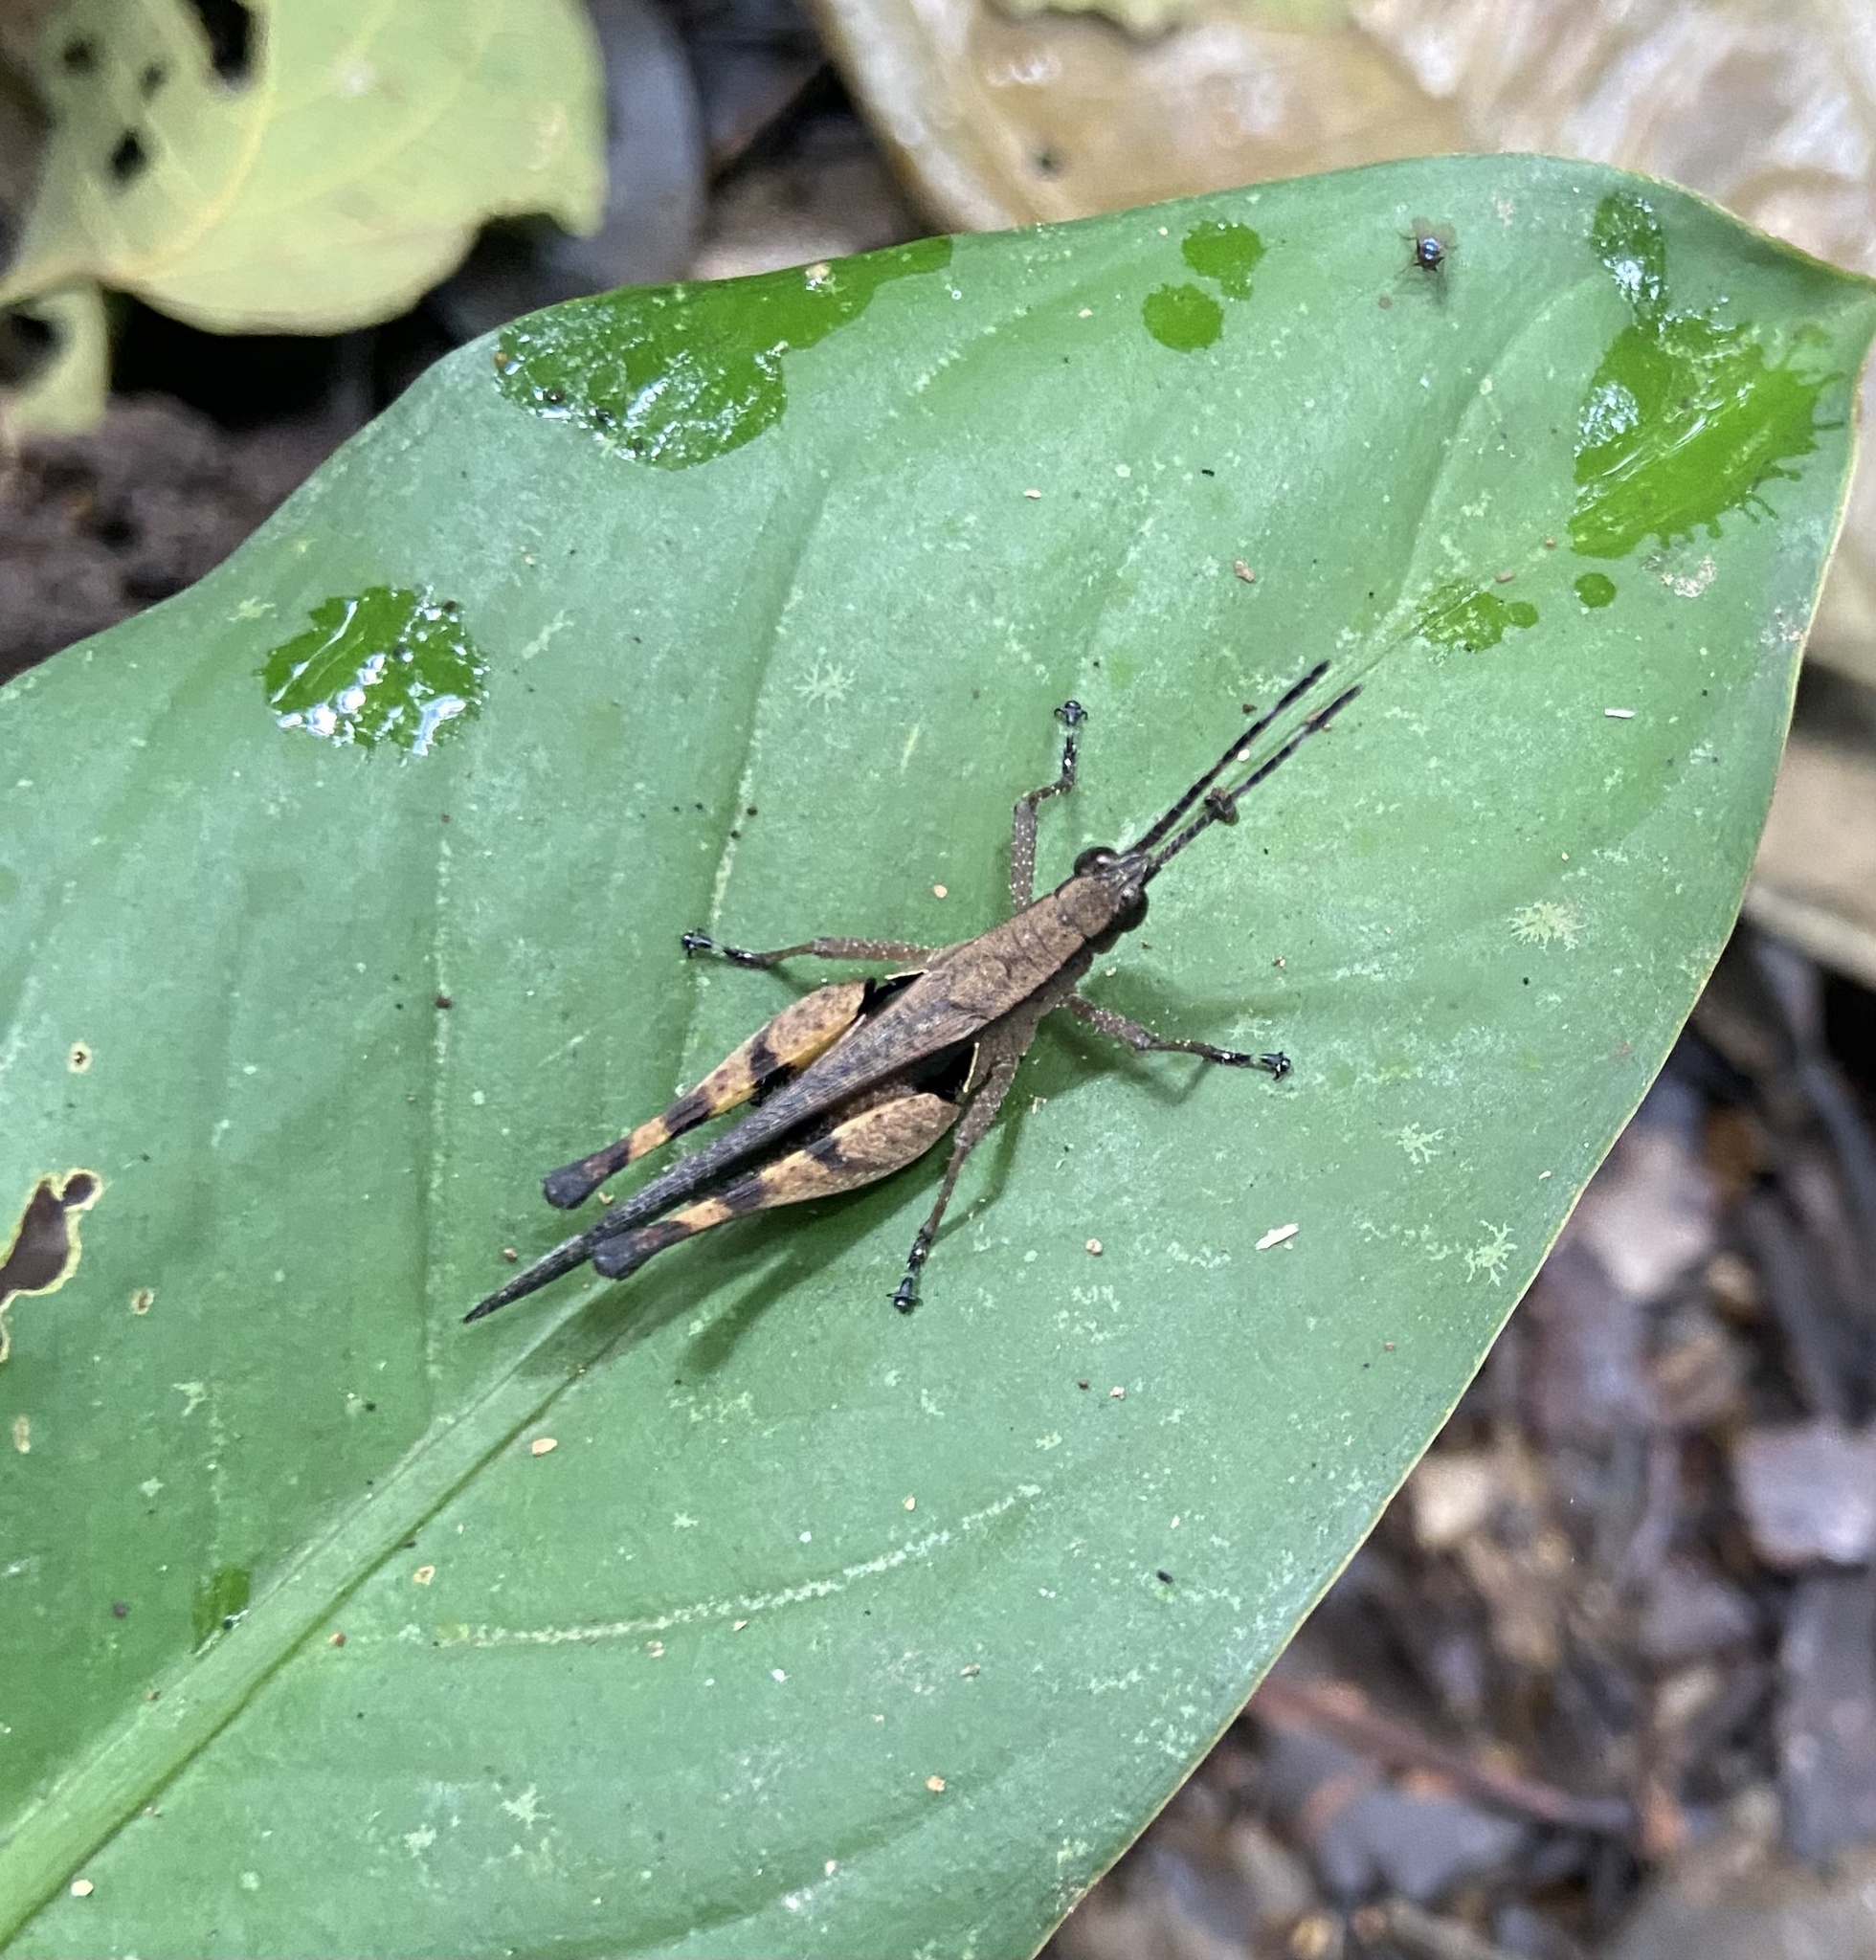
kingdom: Animalia
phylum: Arthropoda
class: Insecta
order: Orthoptera
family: Acrididae
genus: Xiphiola
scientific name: Xiphiola cyanoptera
